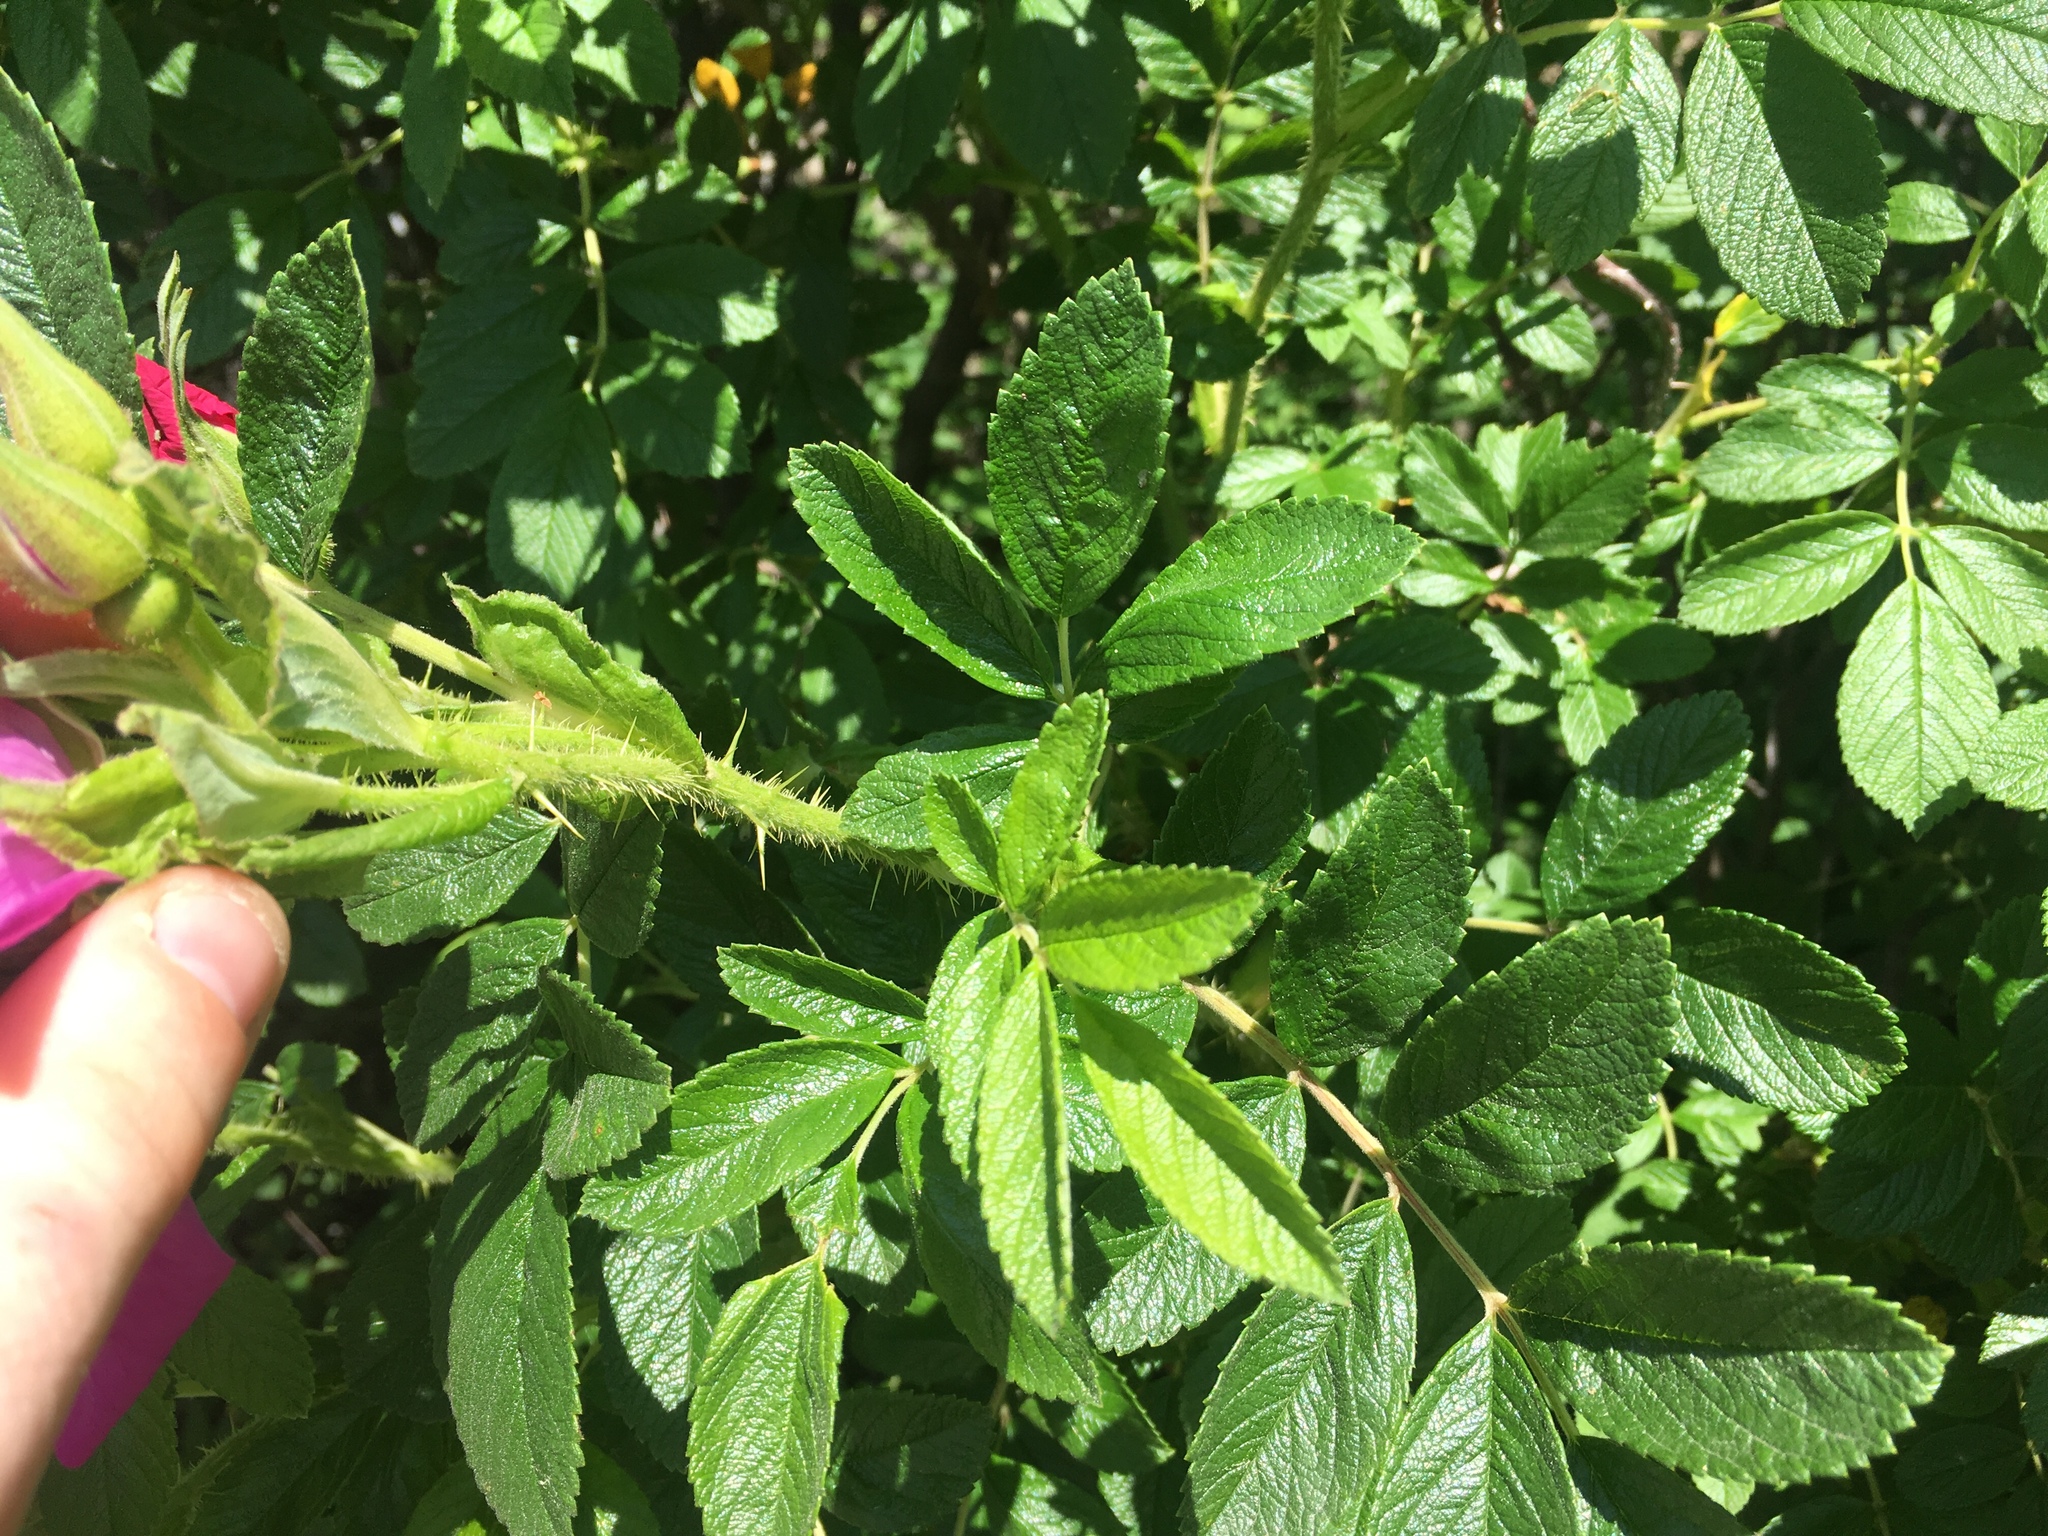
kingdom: Plantae
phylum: Tracheophyta
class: Magnoliopsida
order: Rosales
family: Rosaceae
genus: Rosa
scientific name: Rosa rugosa
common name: Japanese rose
